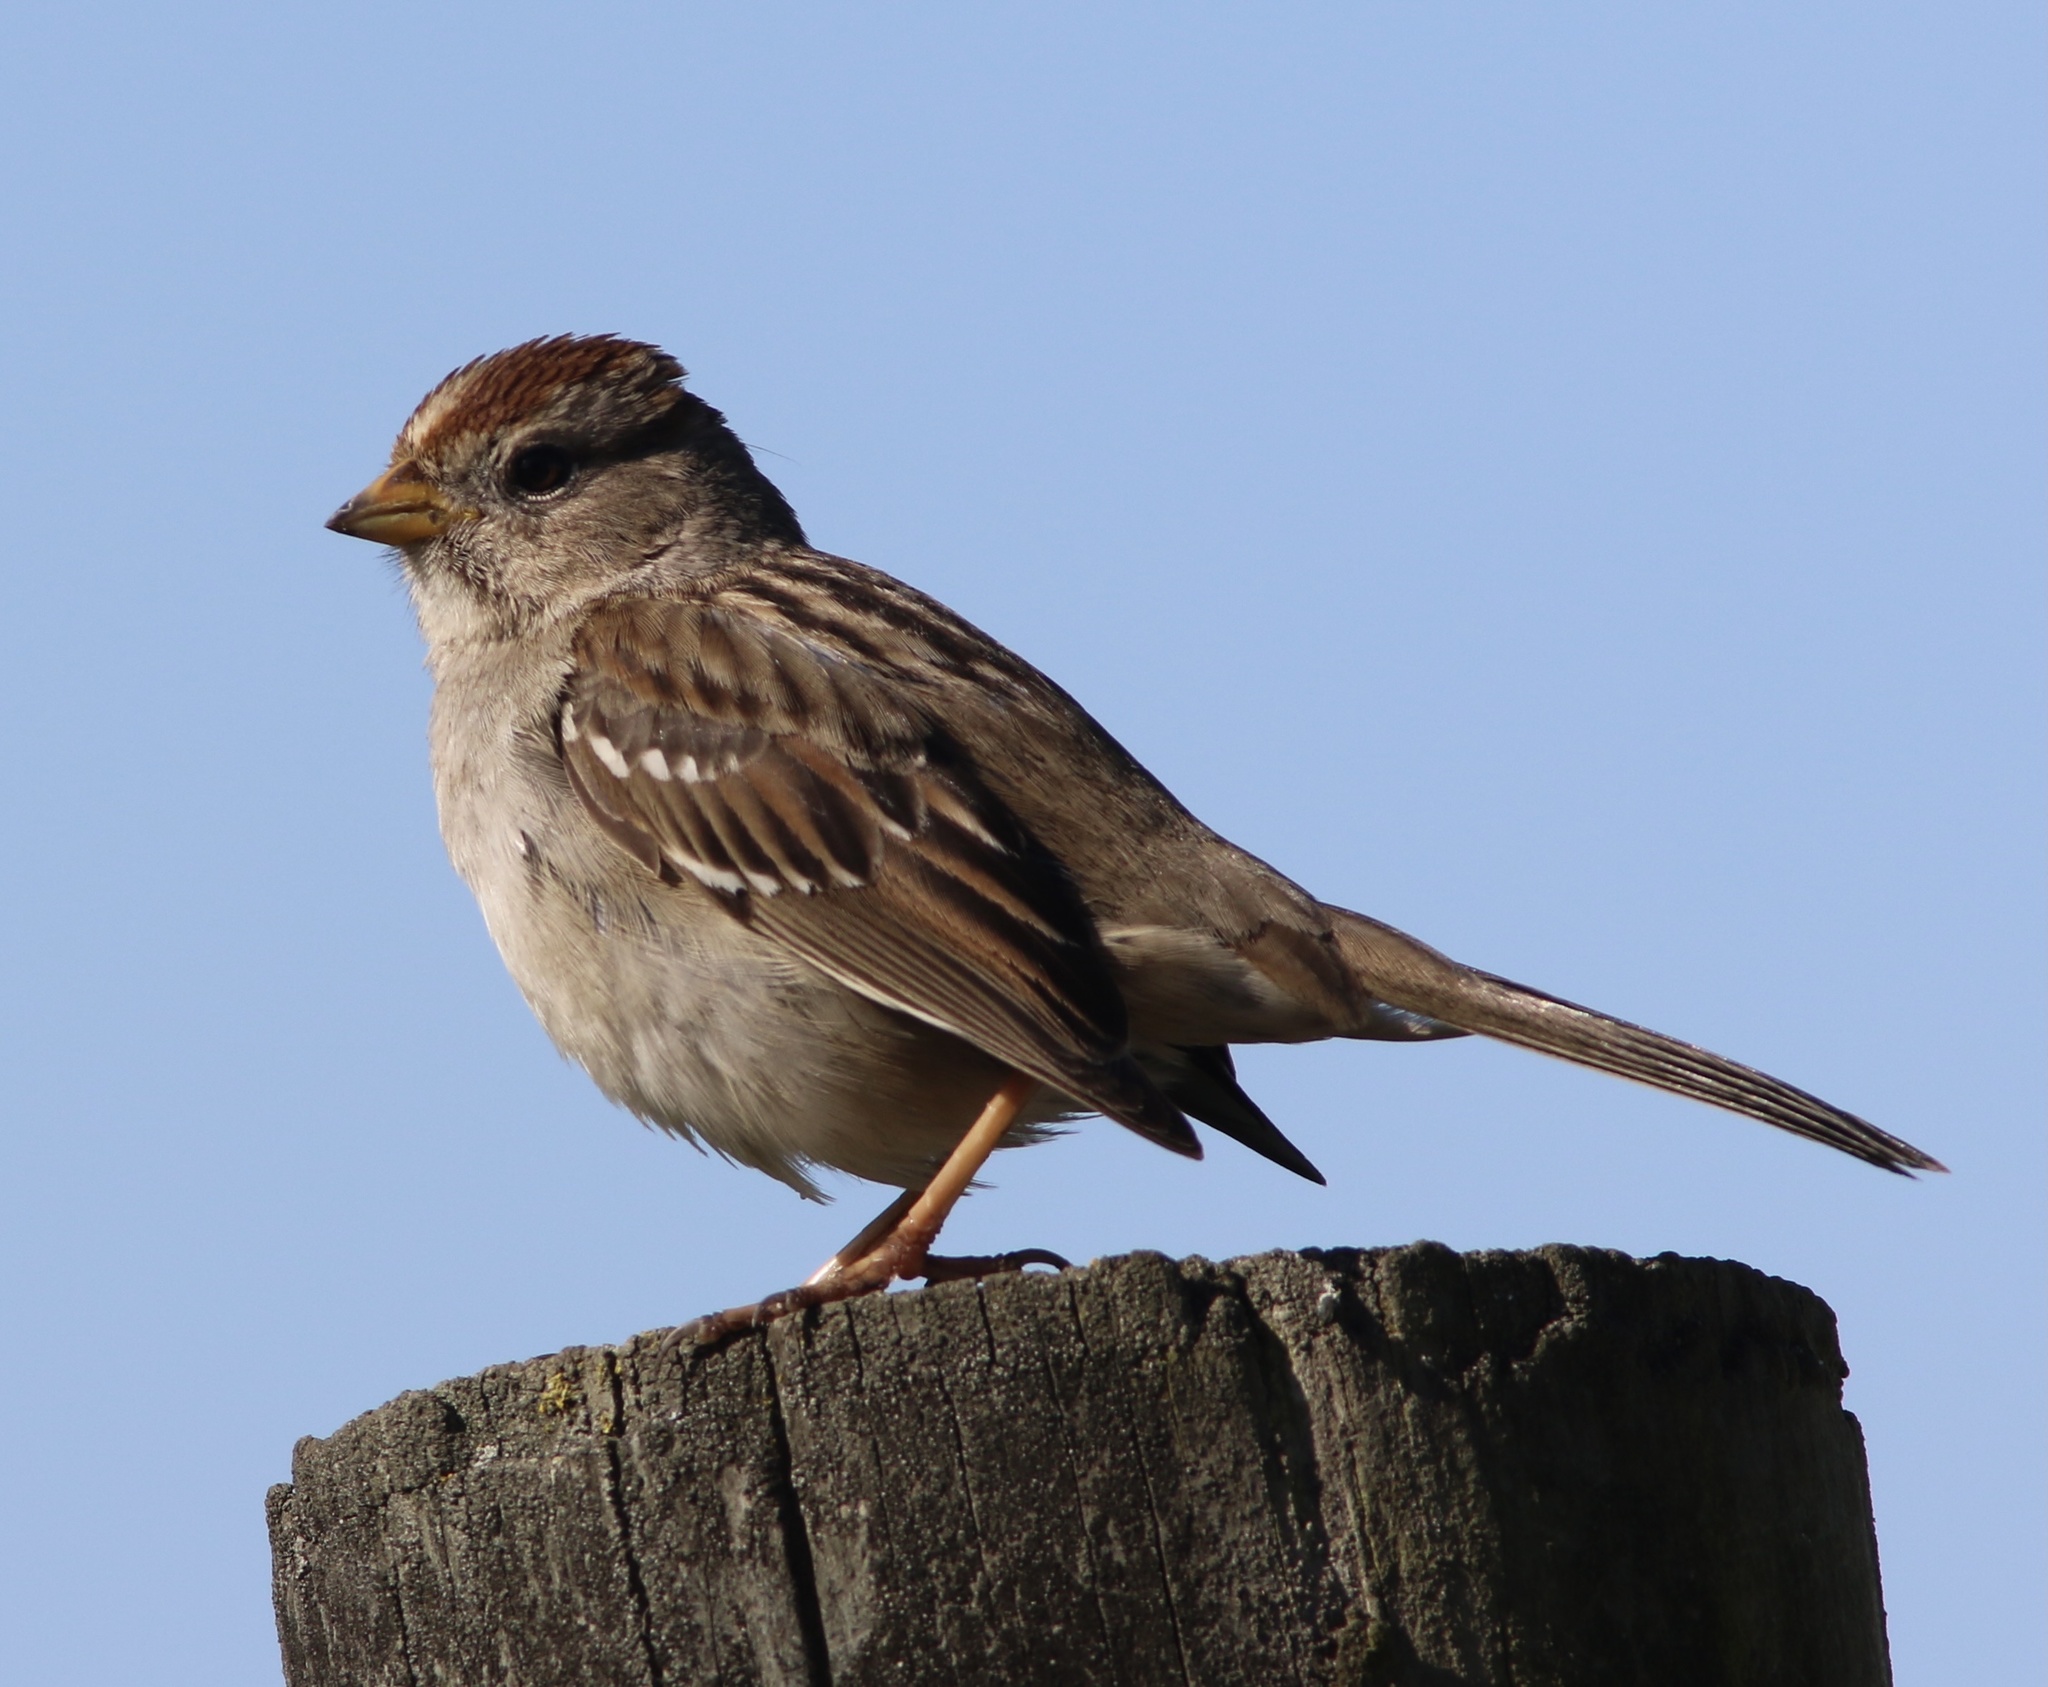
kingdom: Animalia
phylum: Chordata
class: Aves
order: Passeriformes
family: Passerellidae
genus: Zonotrichia
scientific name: Zonotrichia leucophrys
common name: White-crowned sparrow
